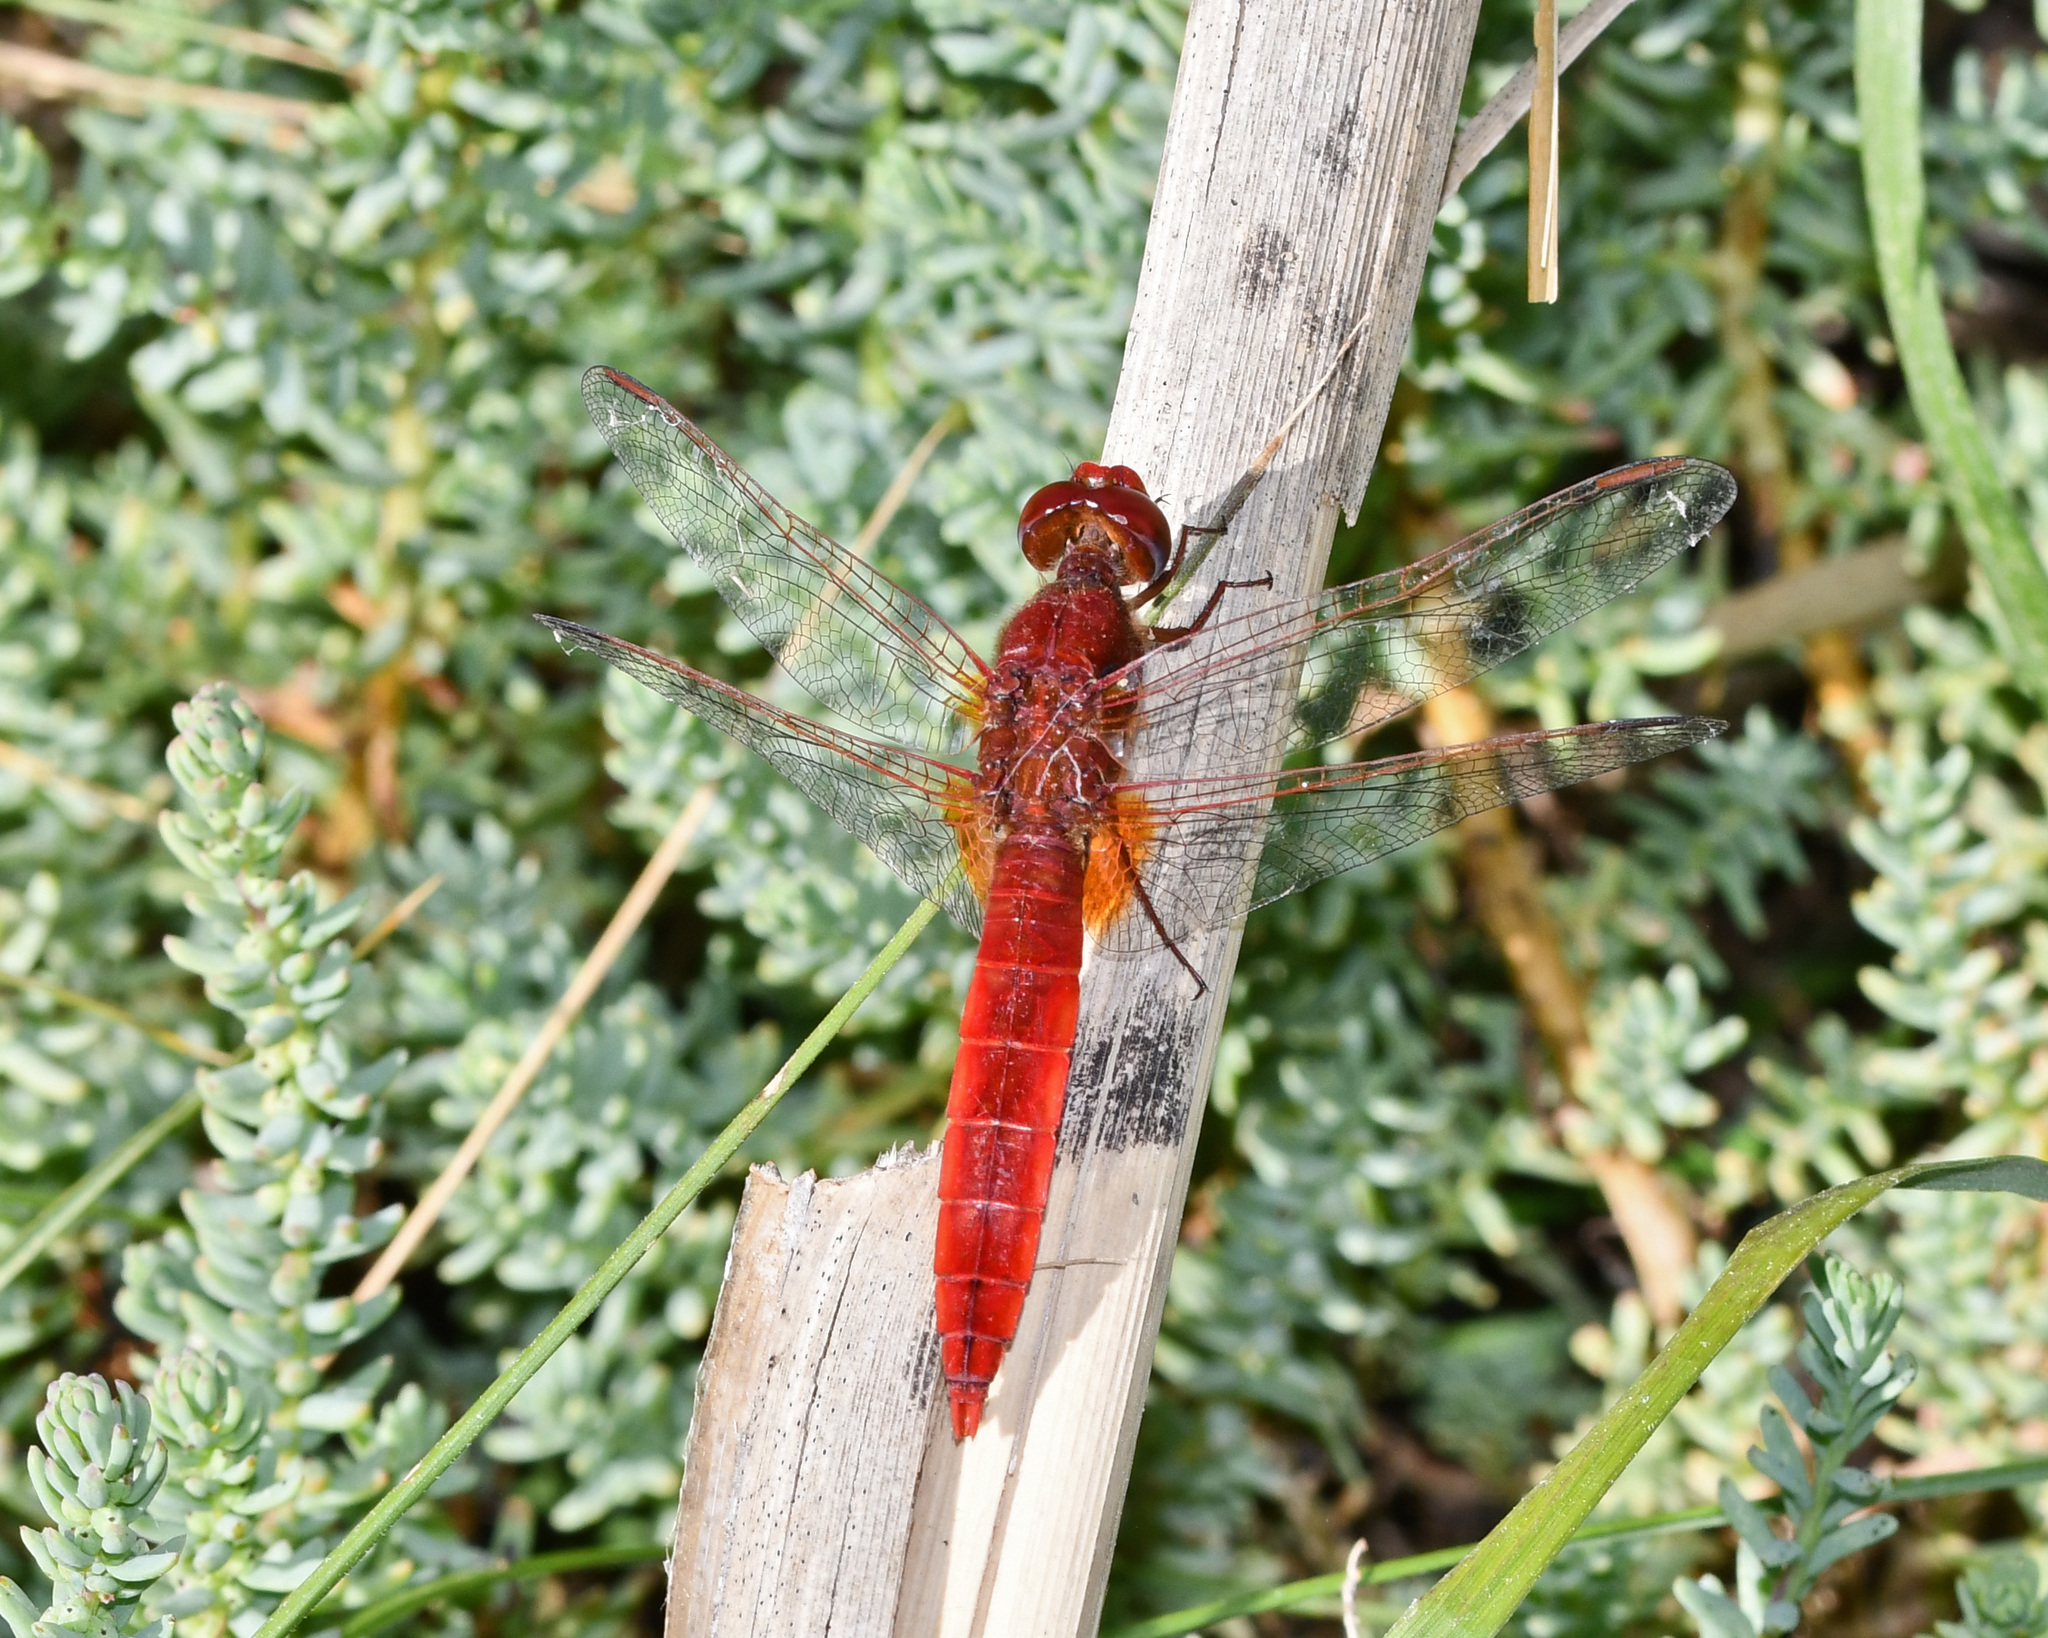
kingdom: Animalia
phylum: Arthropoda
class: Insecta
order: Odonata
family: Libellulidae
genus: Crocothemis
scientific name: Crocothemis erythraea
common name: Scarlet dragonfly
